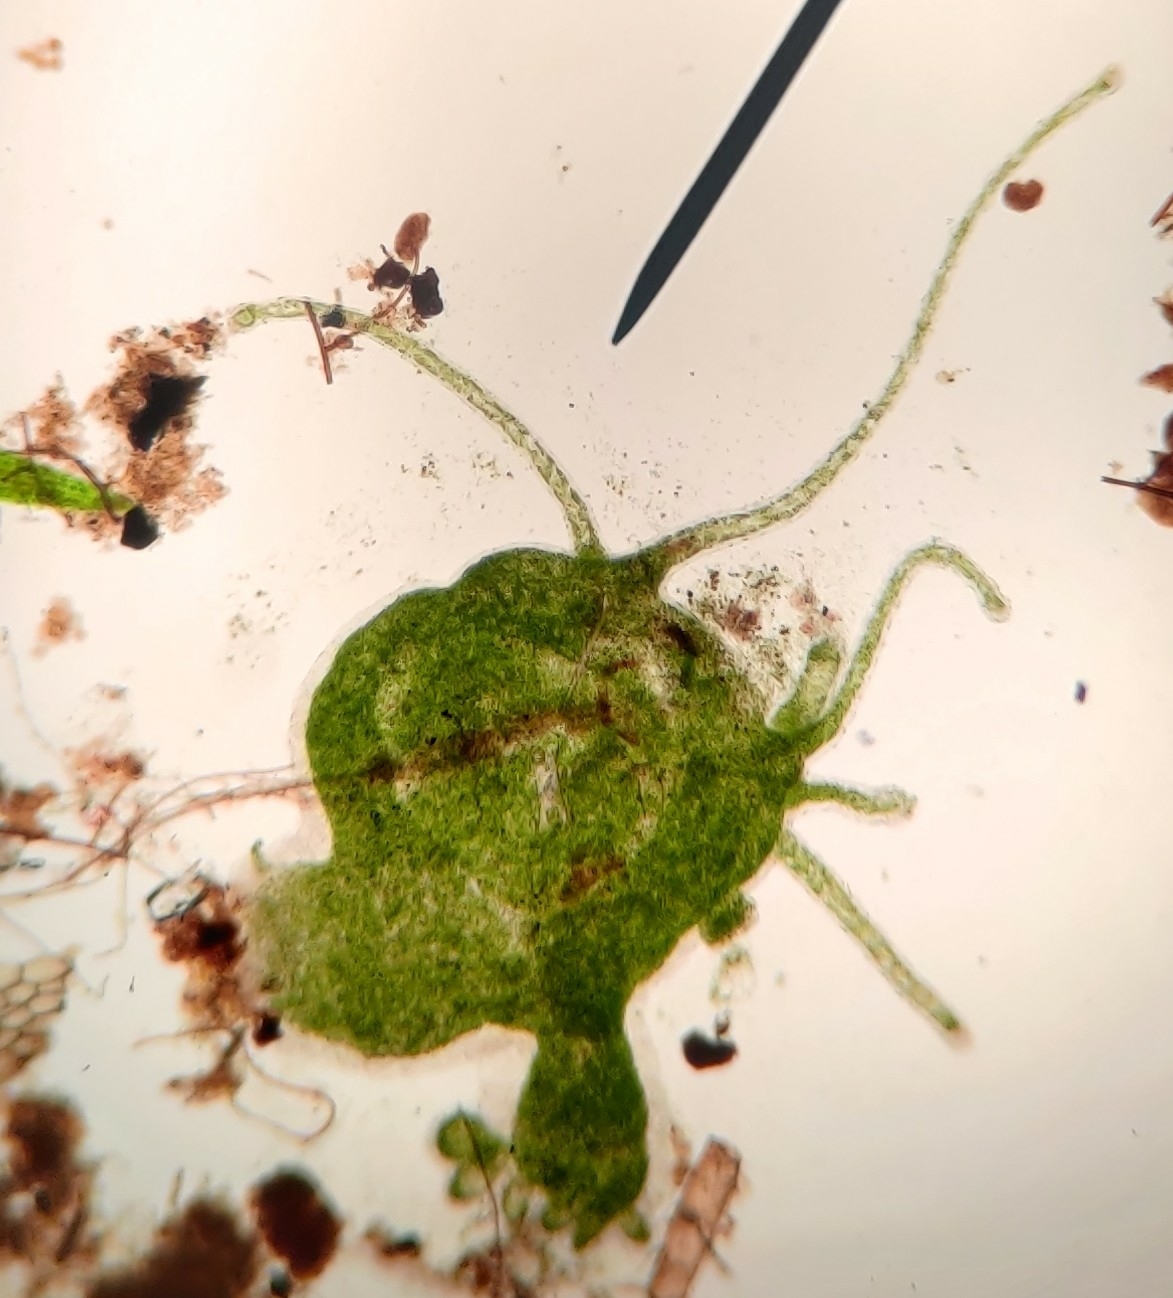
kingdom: Animalia
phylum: Cnidaria
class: Hydrozoa
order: Anthoathecata
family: Hydridae
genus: Hydra
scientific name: Hydra viridissima
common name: Green hydra
